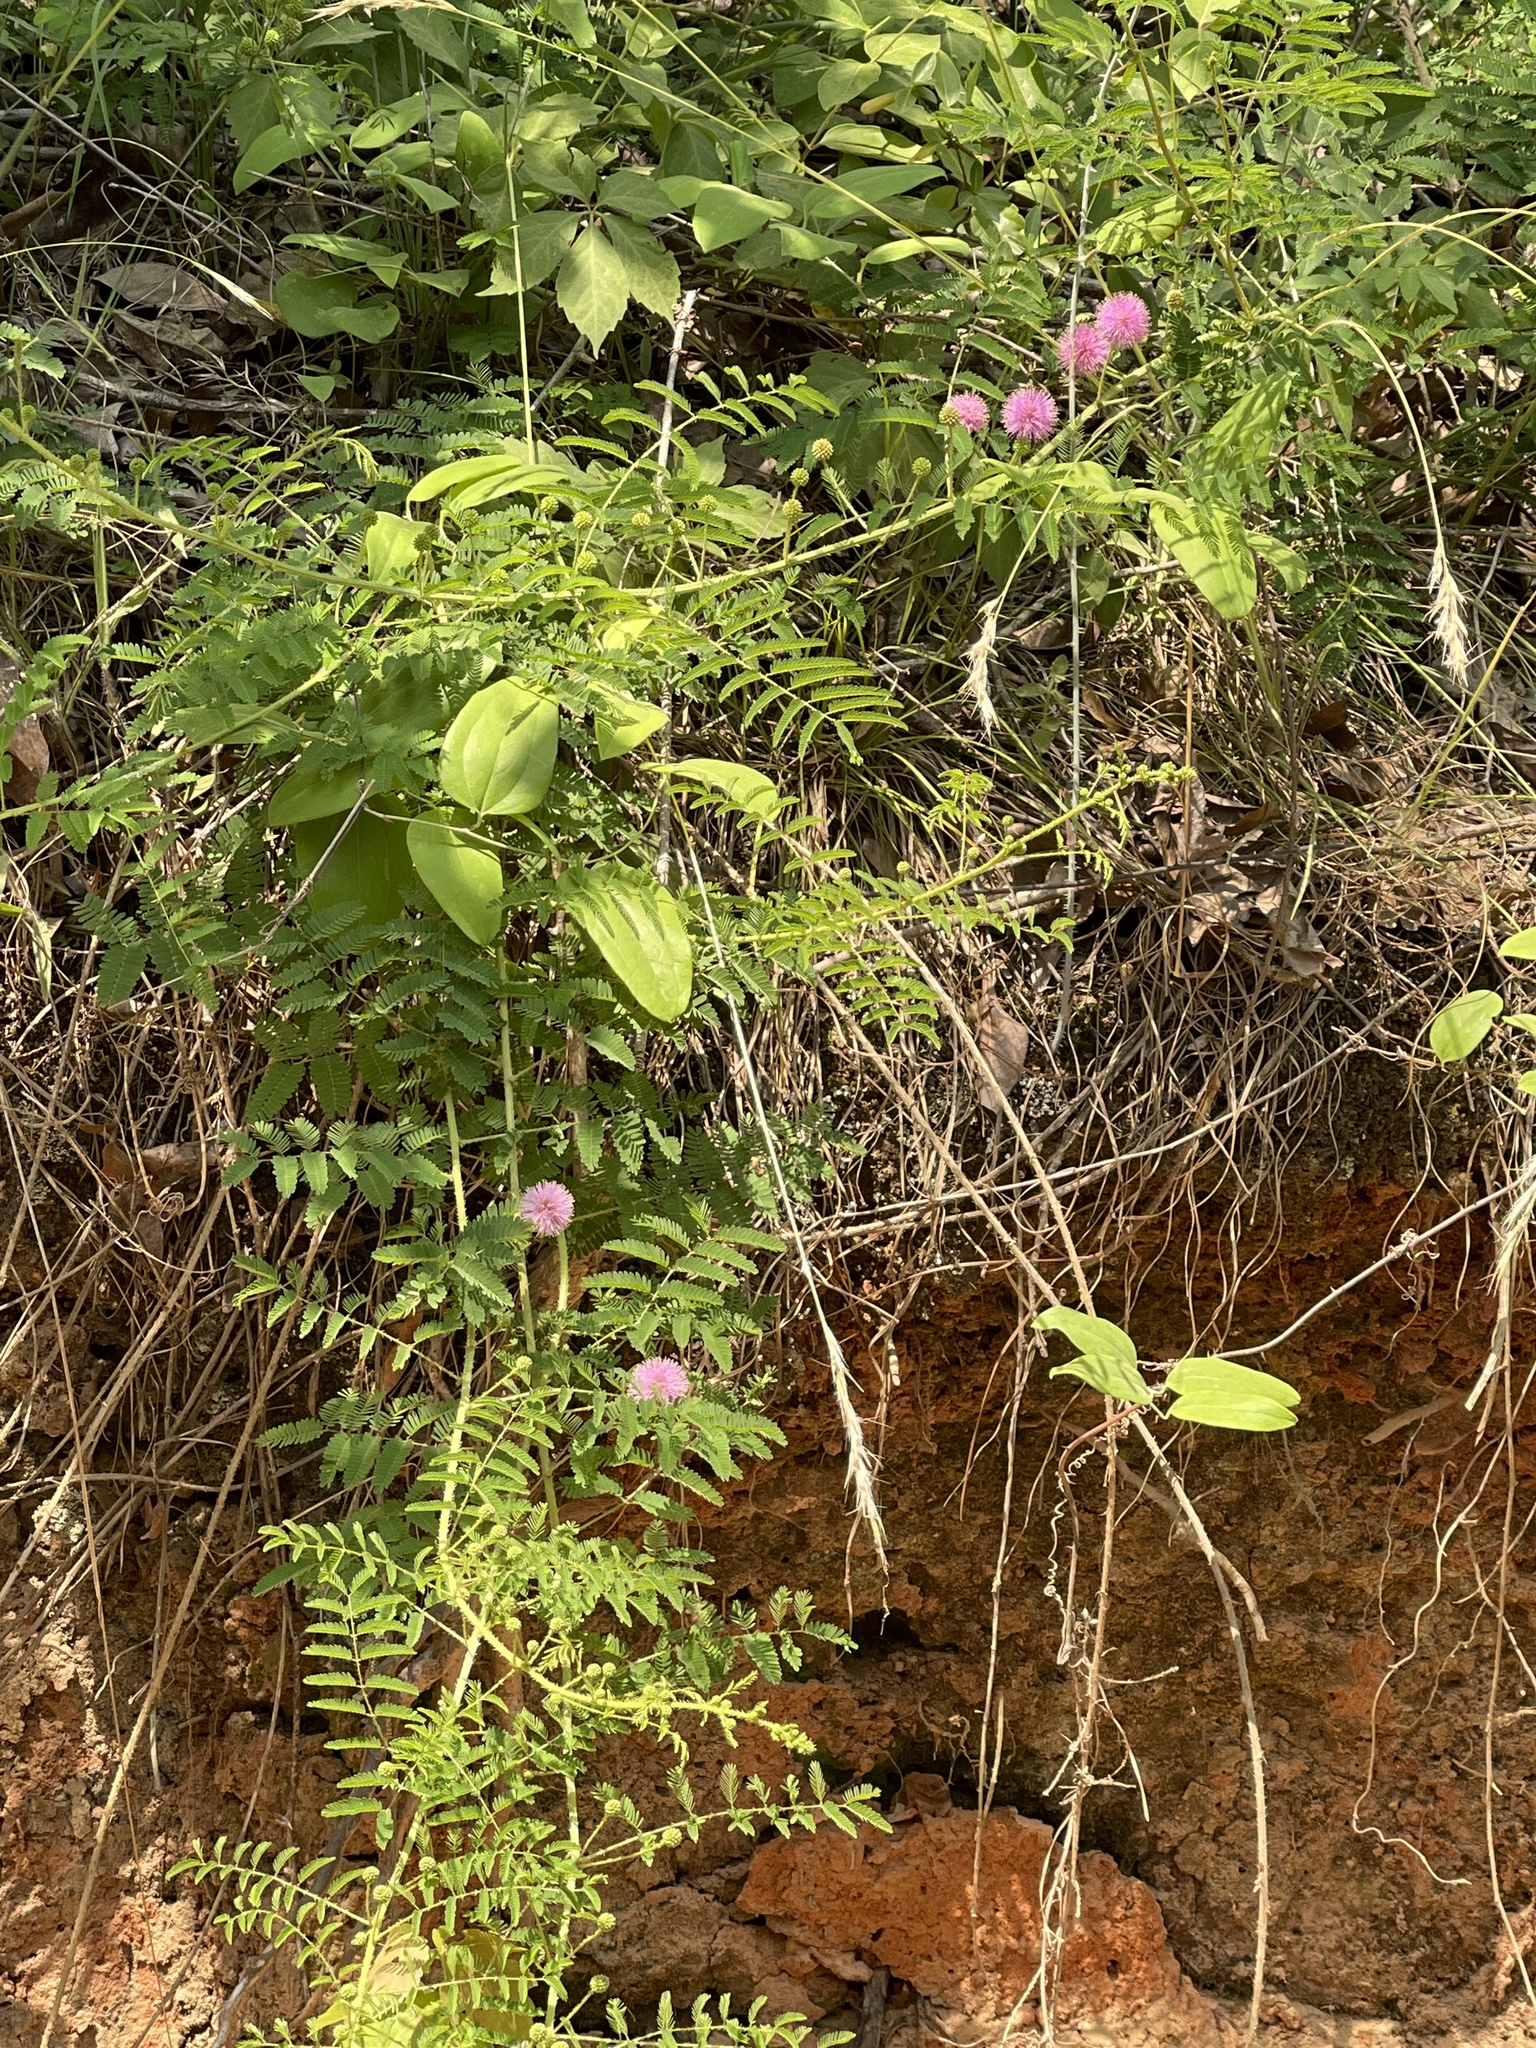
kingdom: Plantae
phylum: Tracheophyta
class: Magnoliopsida
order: Fabales
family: Fabaceae
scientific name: Fabaceae
